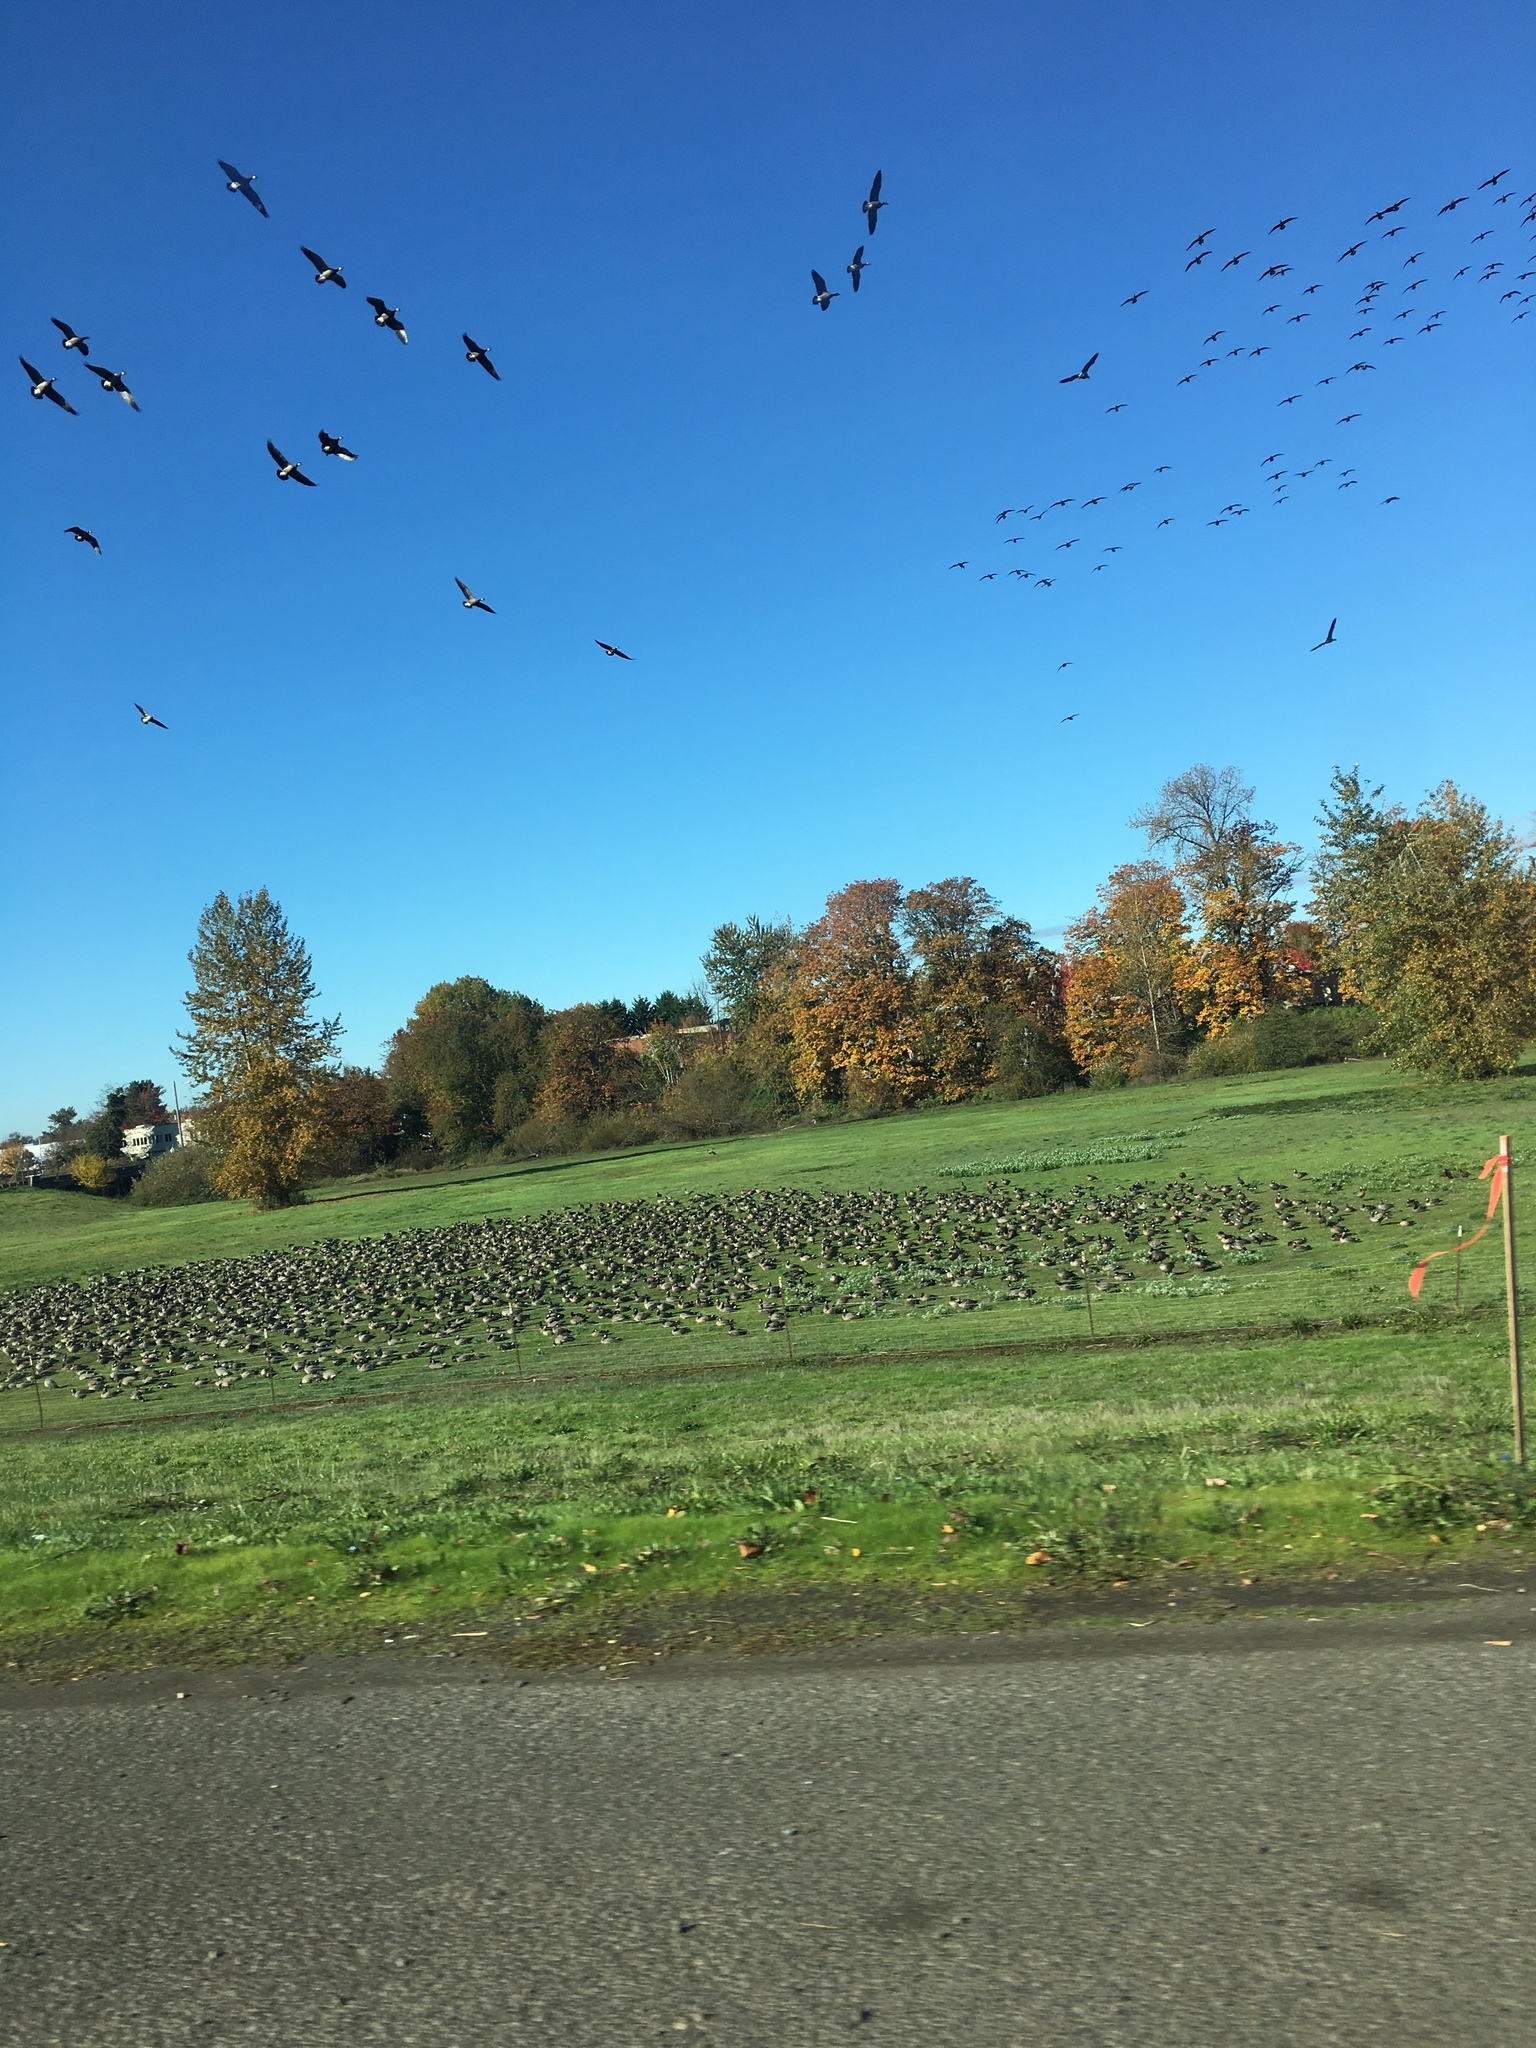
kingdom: Animalia
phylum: Chordata
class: Aves
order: Anseriformes
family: Anatidae
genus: Branta
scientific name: Branta hutchinsii
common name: Cackling goose
